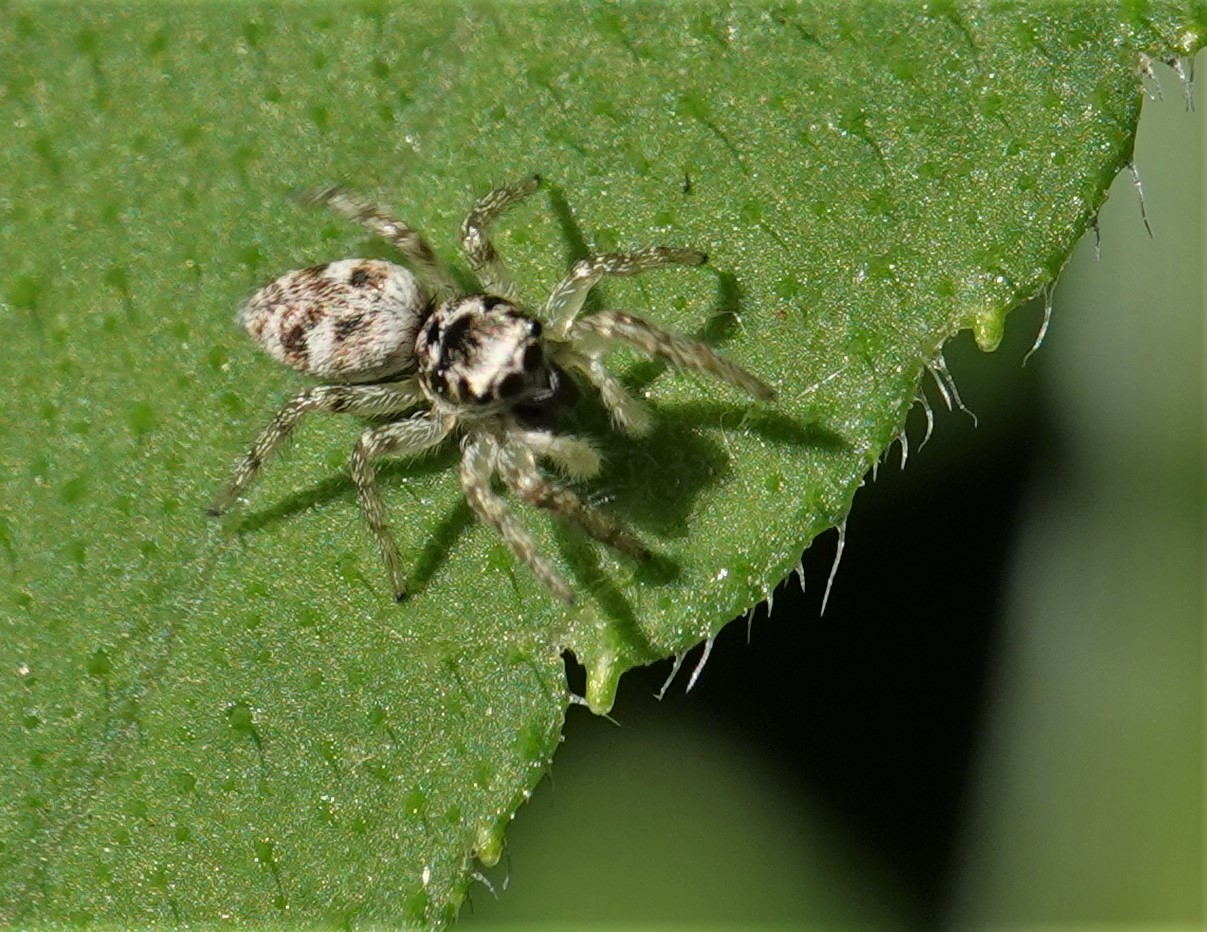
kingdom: Animalia
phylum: Arthropoda
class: Arachnida
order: Araneae
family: Salticidae
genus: Salticus
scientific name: Salticus scenicus
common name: Zebra jumper
